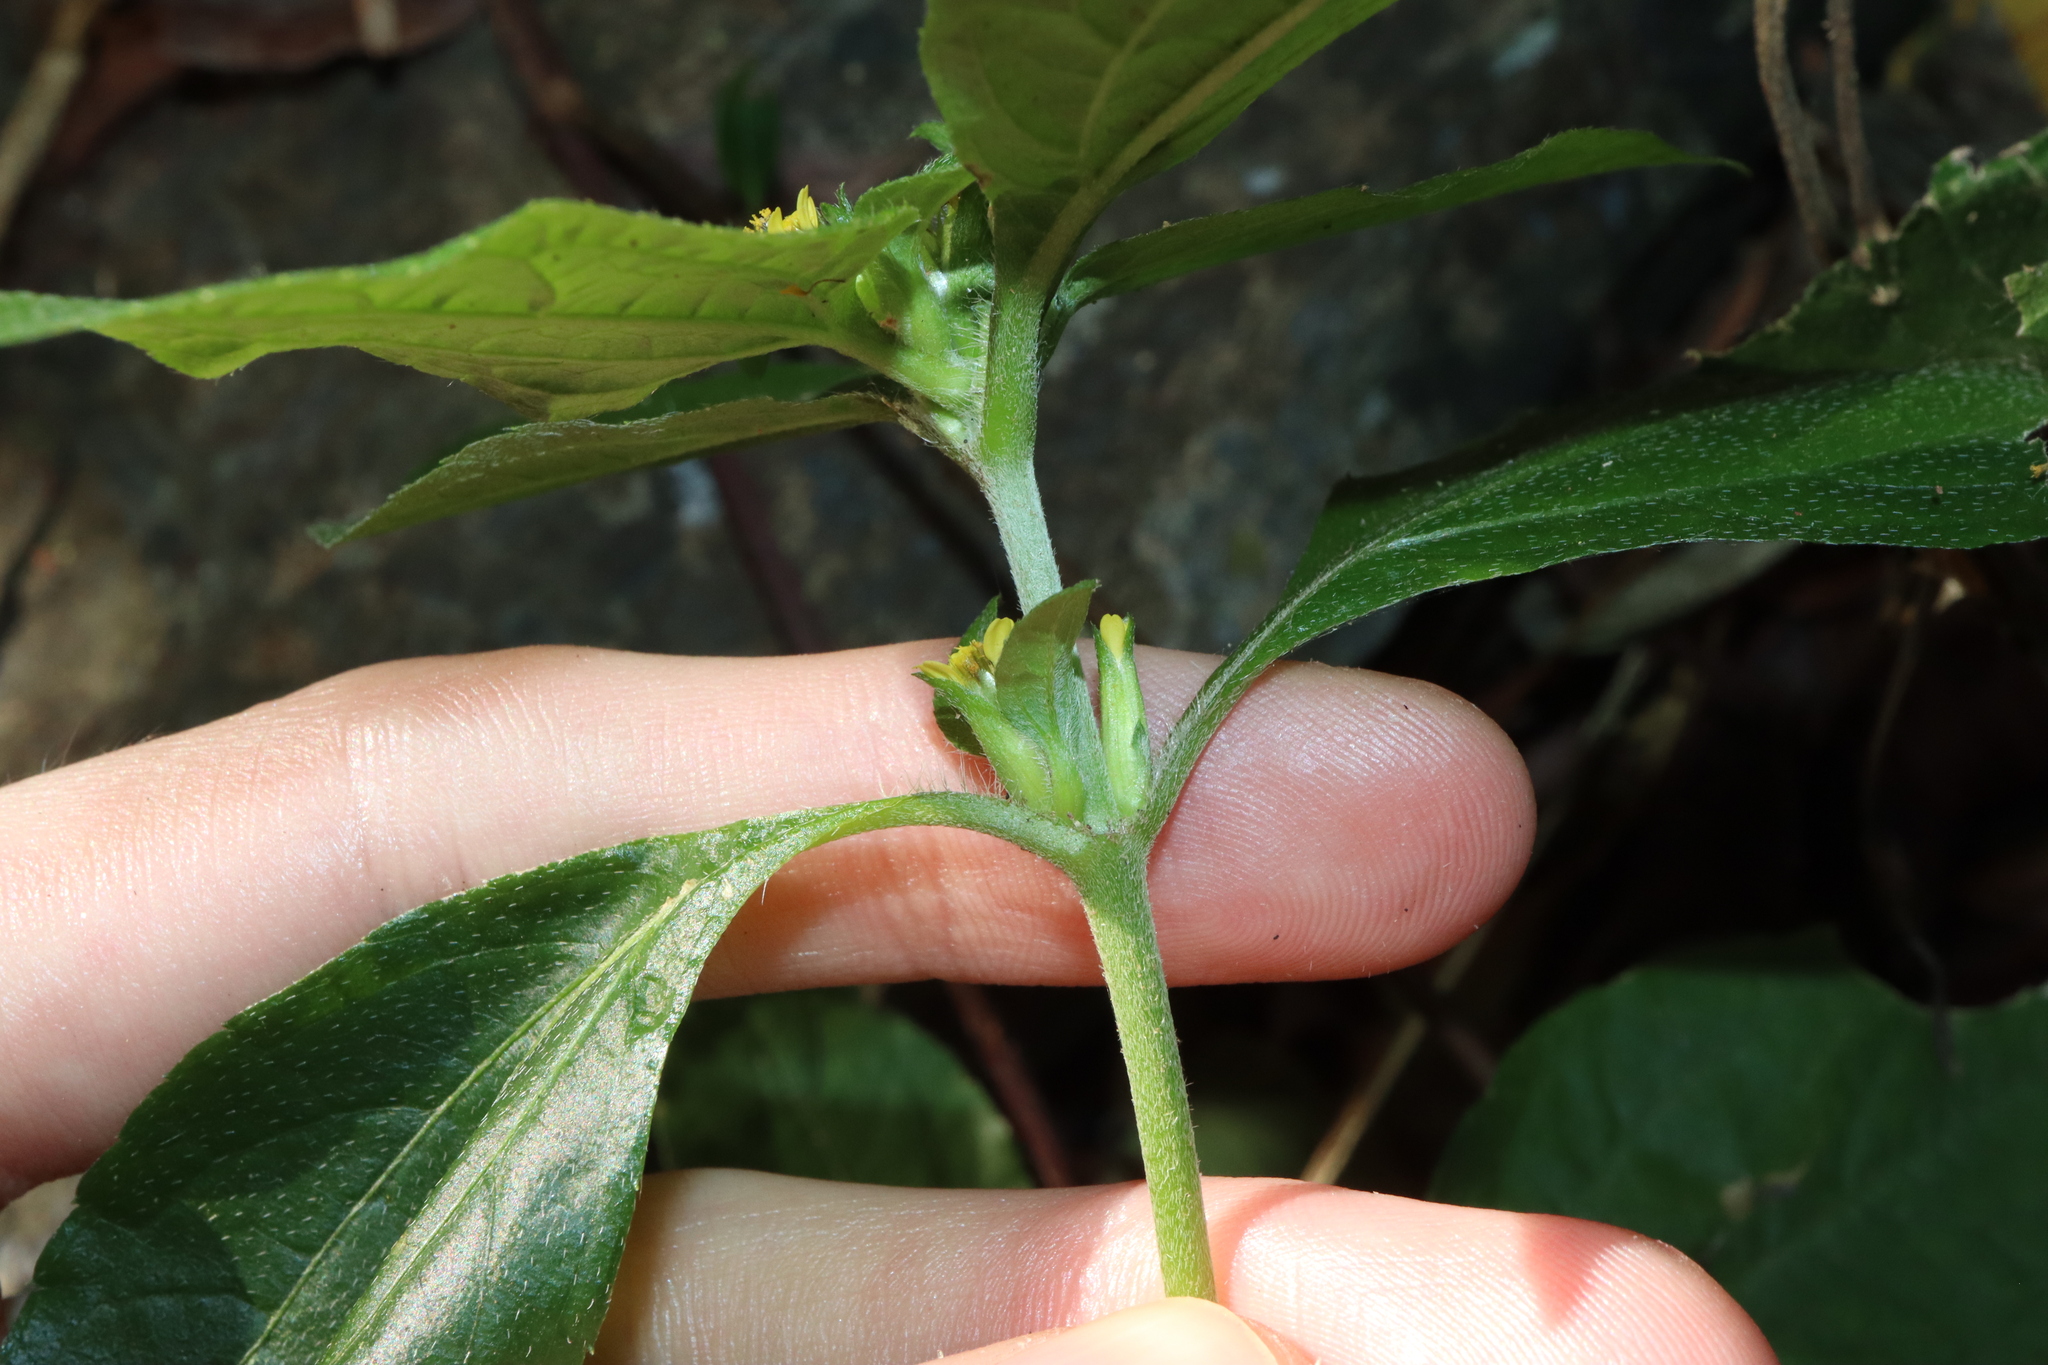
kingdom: Plantae
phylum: Tracheophyta
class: Magnoliopsida
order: Asterales
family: Asteraceae
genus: Synedrella
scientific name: Synedrella nodiflora
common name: Nodeweed
